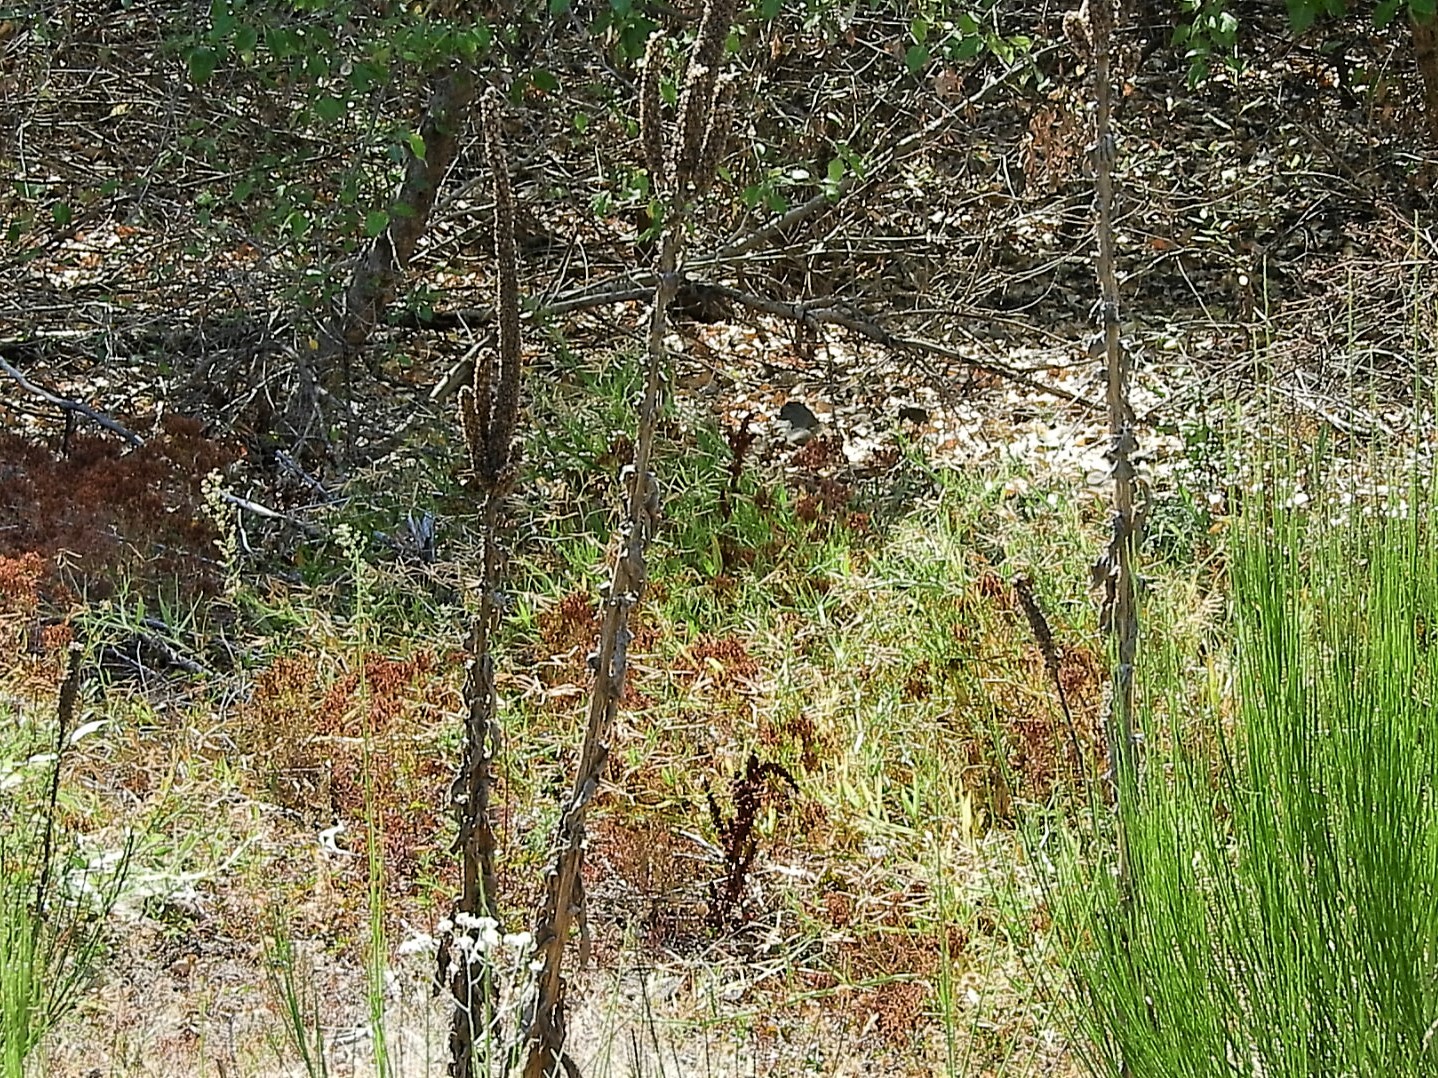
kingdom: Plantae
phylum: Tracheophyta
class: Magnoliopsida
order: Lamiales
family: Scrophulariaceae
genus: Verbascum
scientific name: Verbascum thapsus
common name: Common mullein
